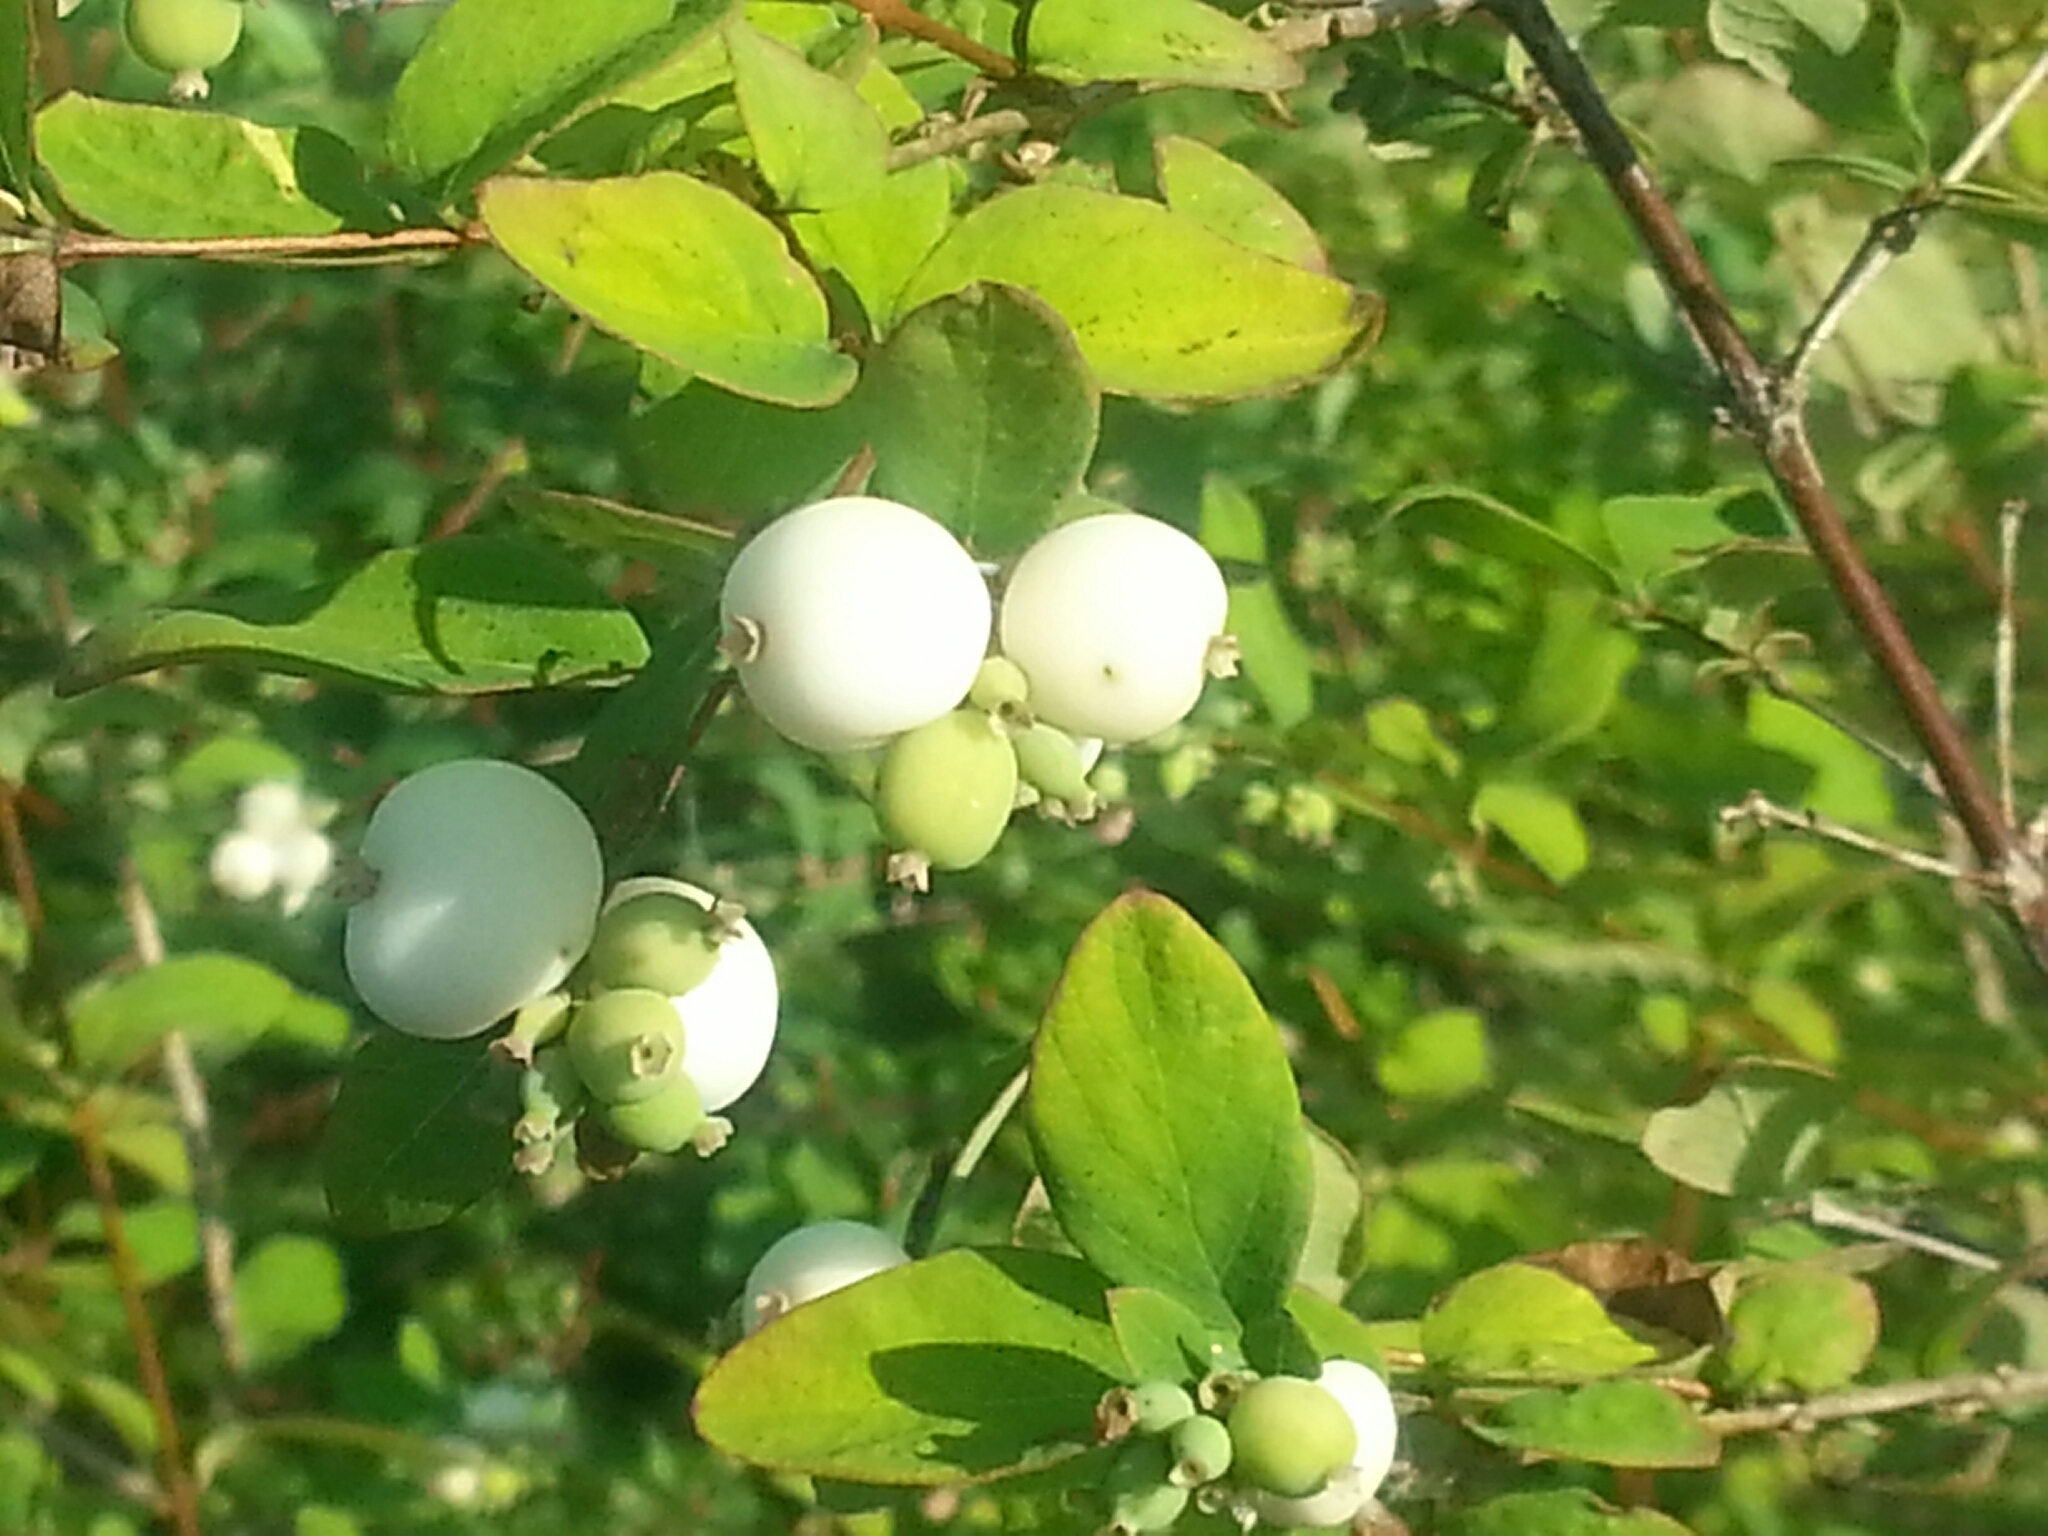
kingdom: Plantae
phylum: Tracheophyta
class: Magnoliopsida
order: Dipsacales
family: Caprifoliaceae
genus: Symphoricarpos
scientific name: Symphoricarpos albus
